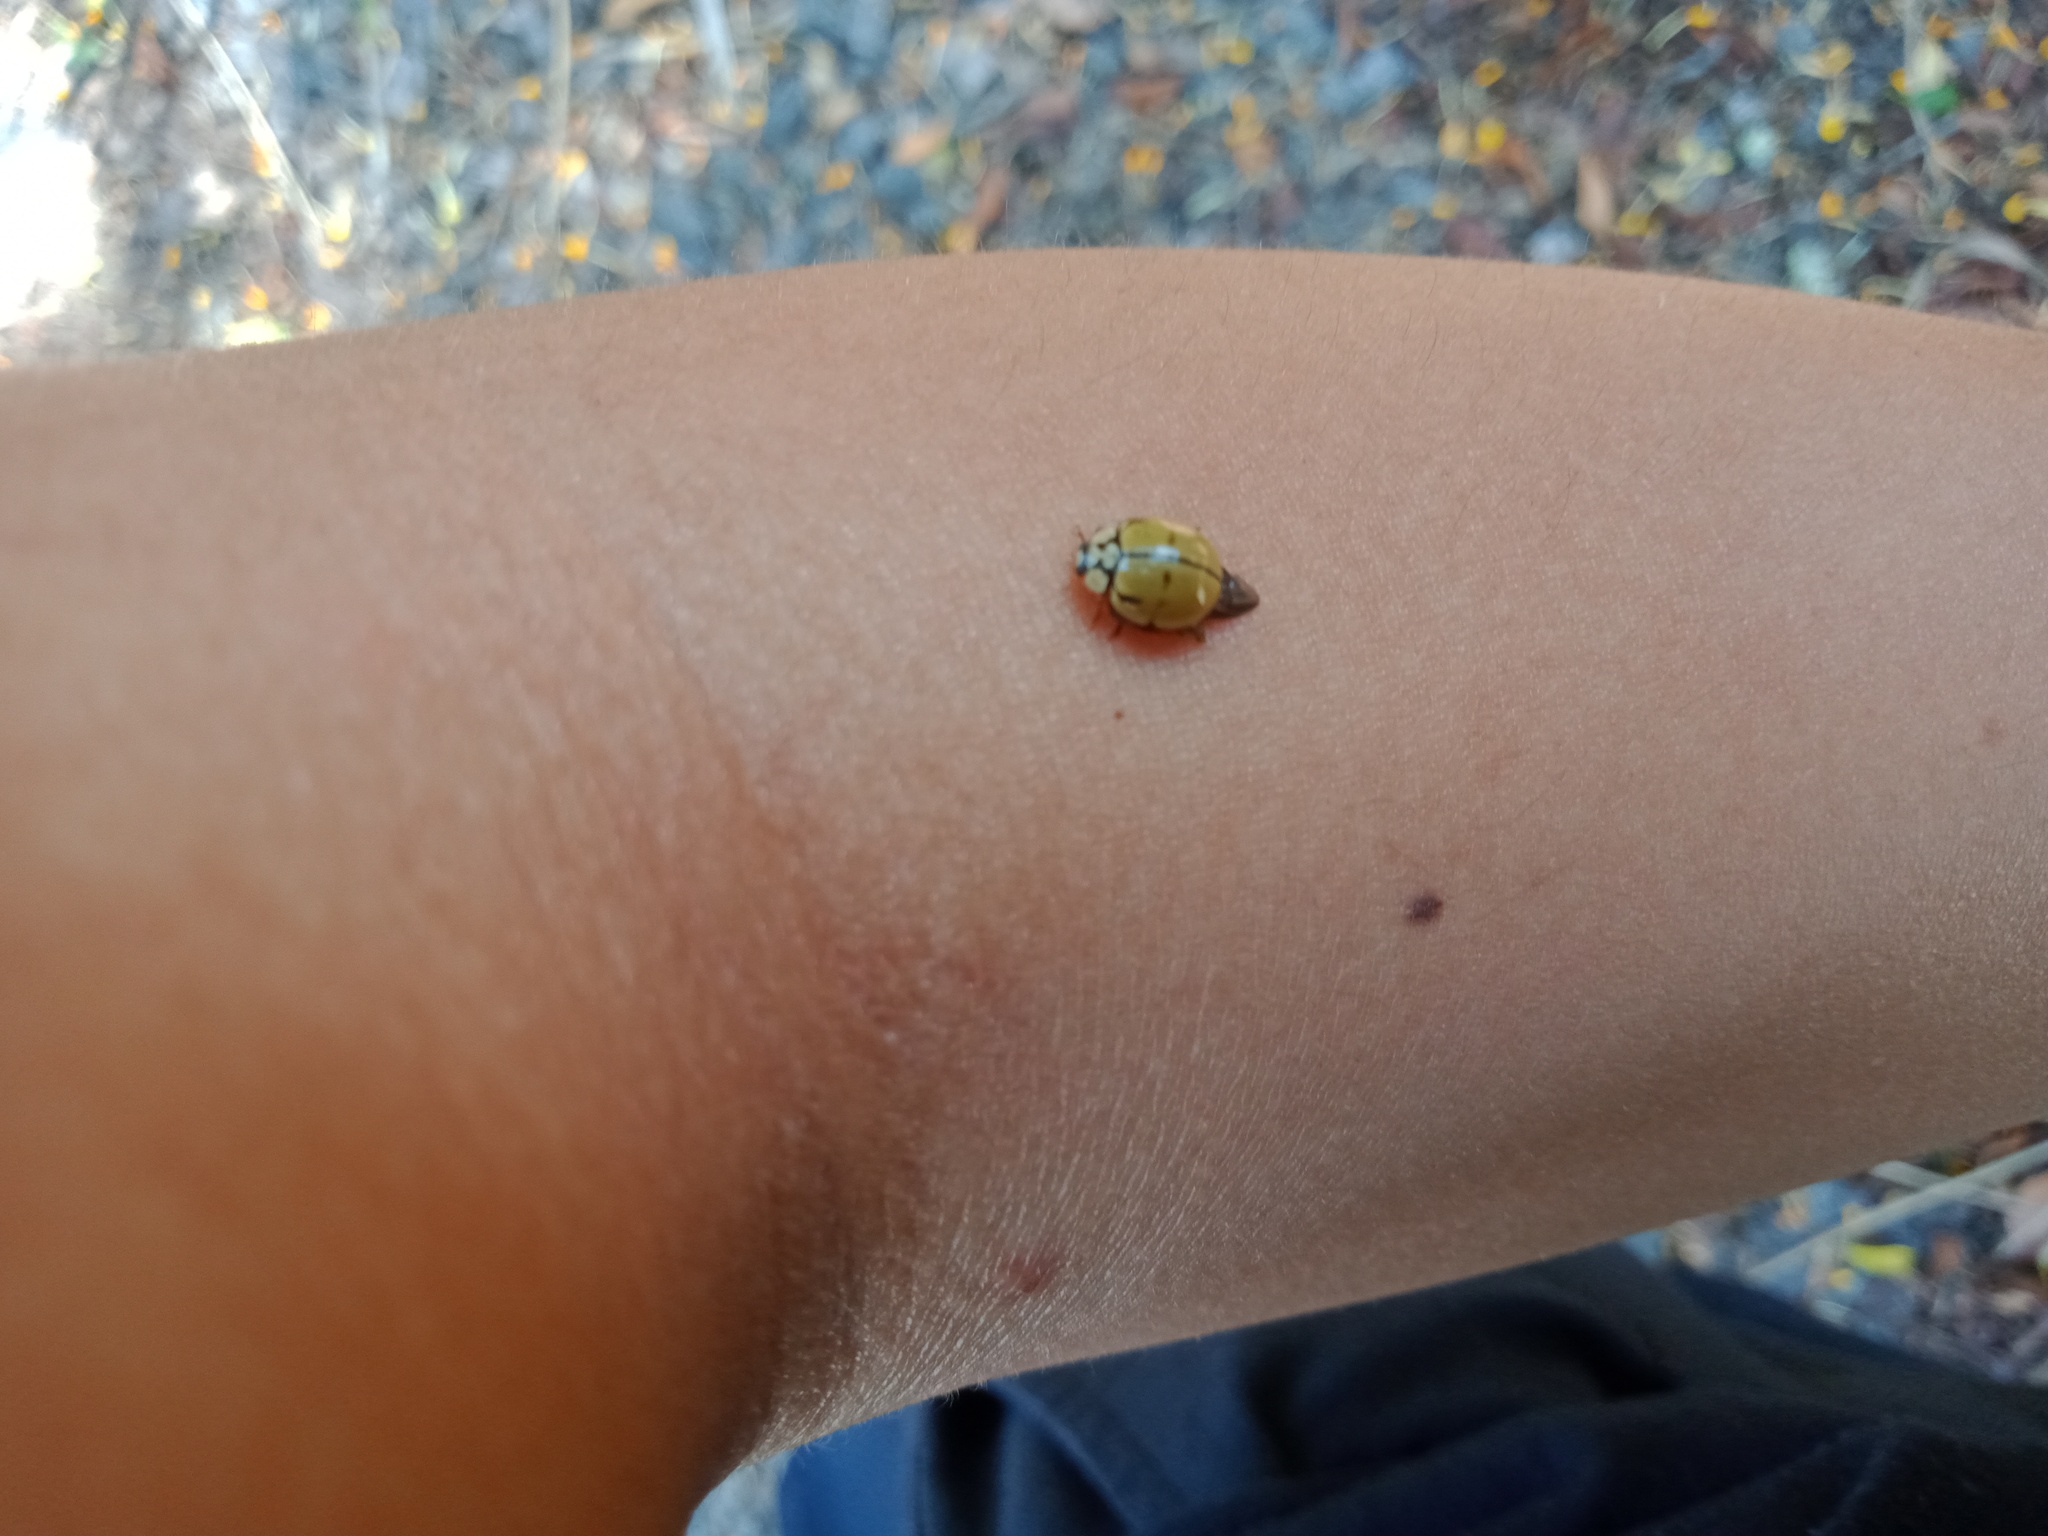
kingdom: Animalia
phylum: Arthropoda
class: Insecta
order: Coleoptera
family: Coccinellidae
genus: Harmonia
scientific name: Harmonia
